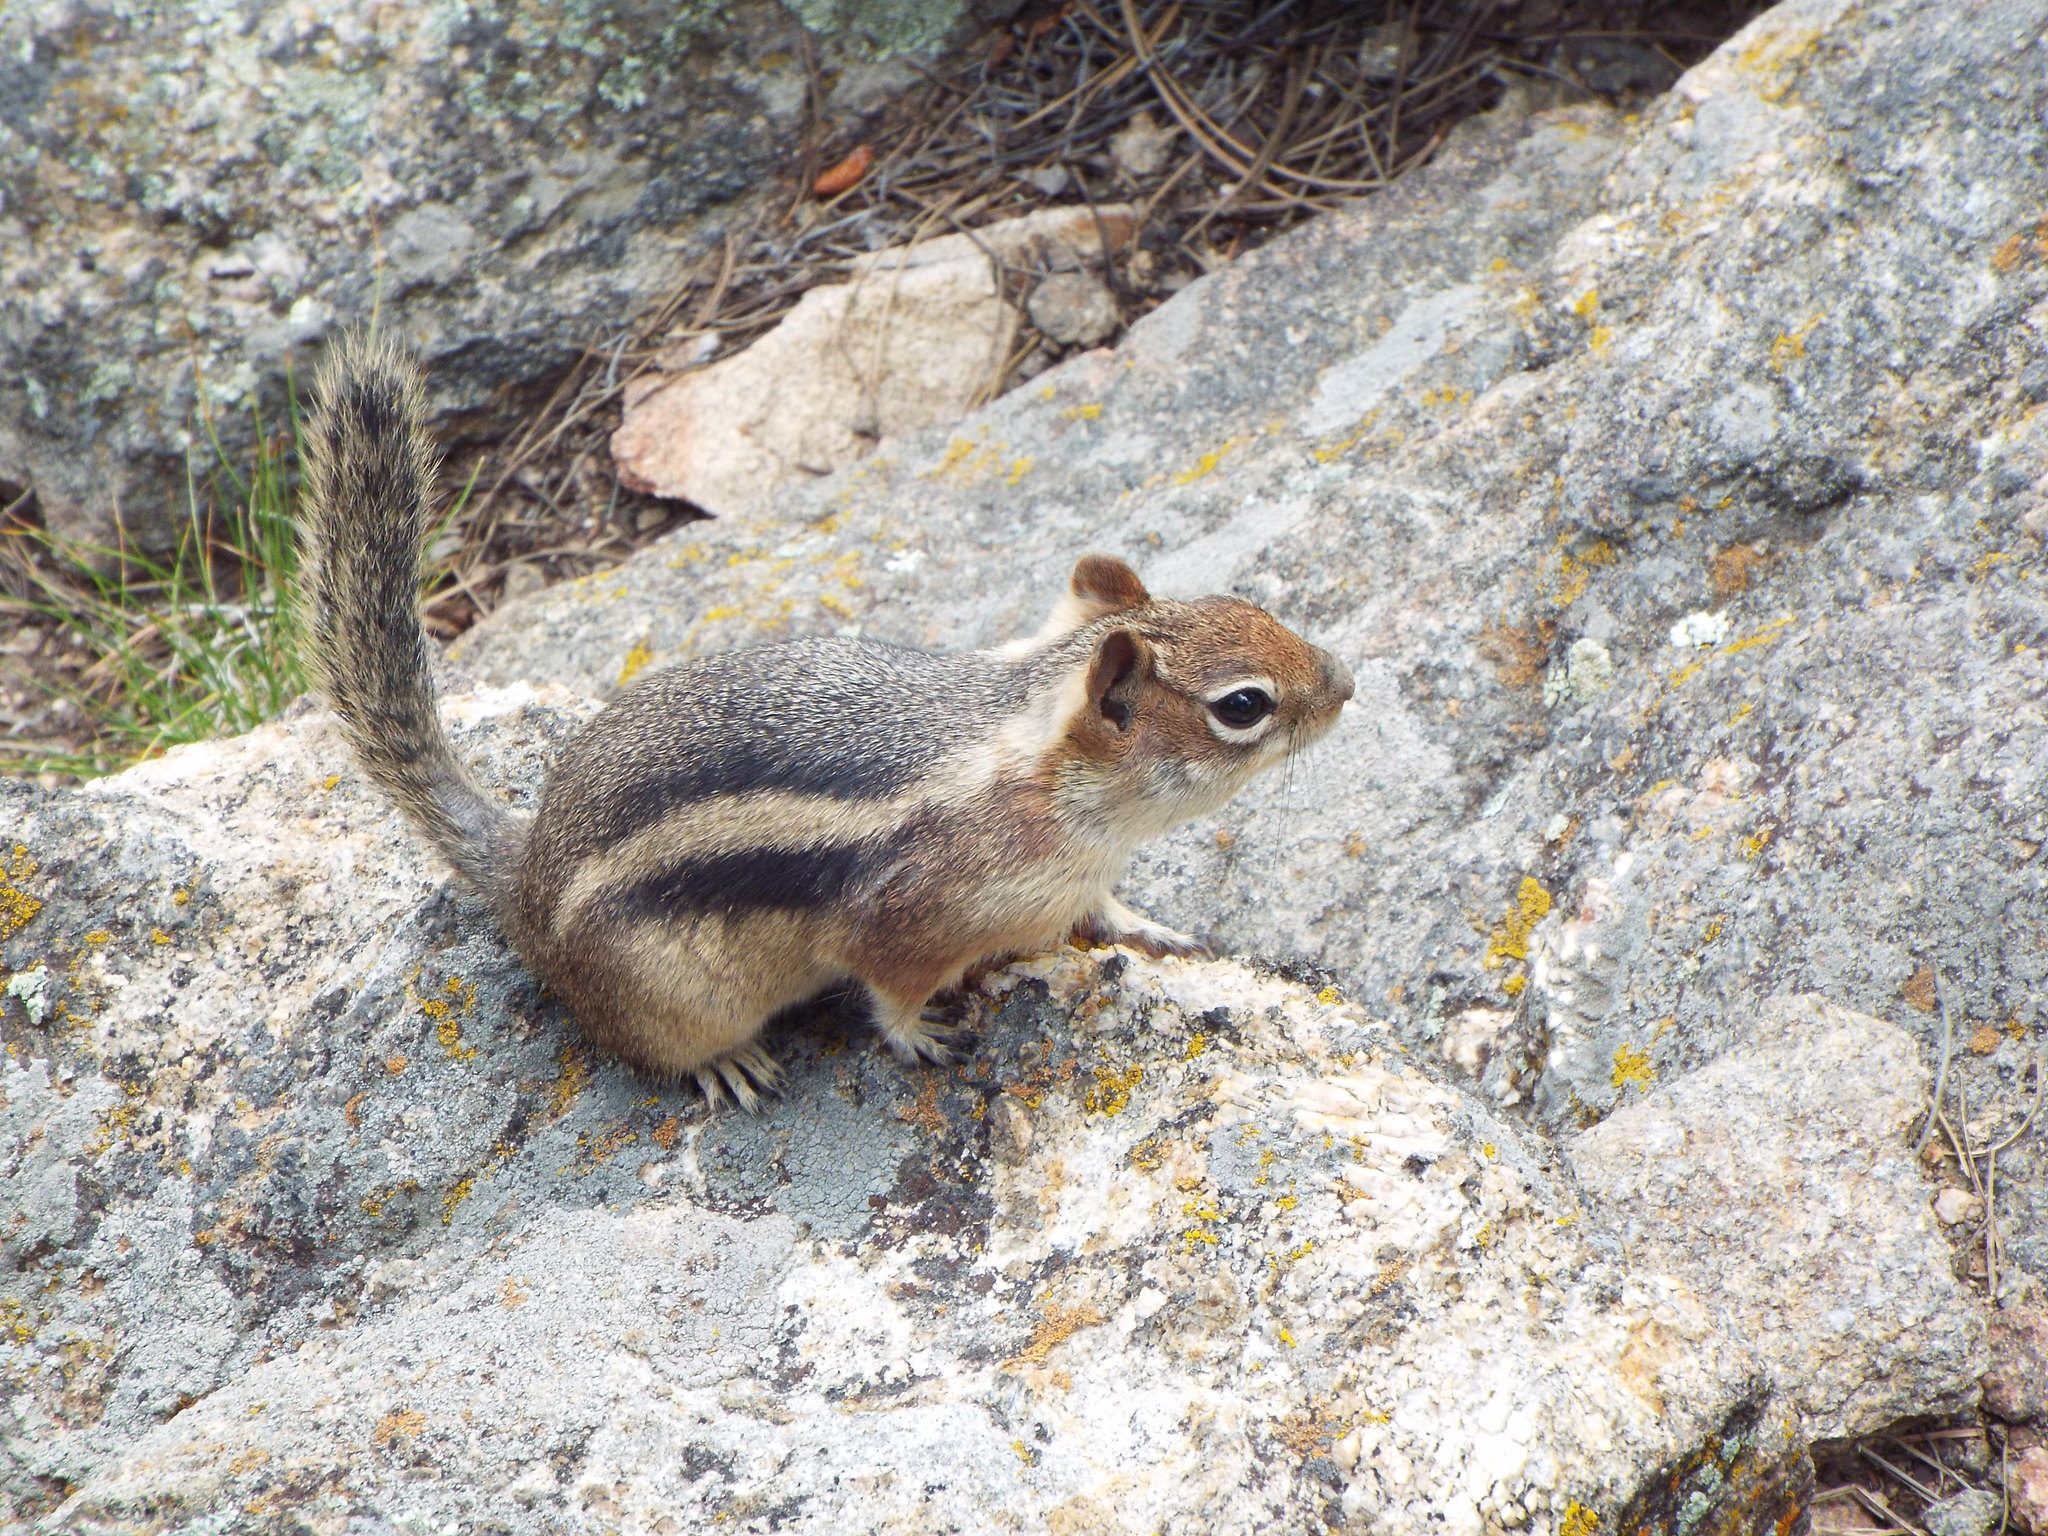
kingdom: Animalia
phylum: Chordata
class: Mammalia
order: Rodentia
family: Sciuridae
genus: Callospermophilus
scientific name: Callospermophilus lateralis
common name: Golden-mantled ground squirrel
